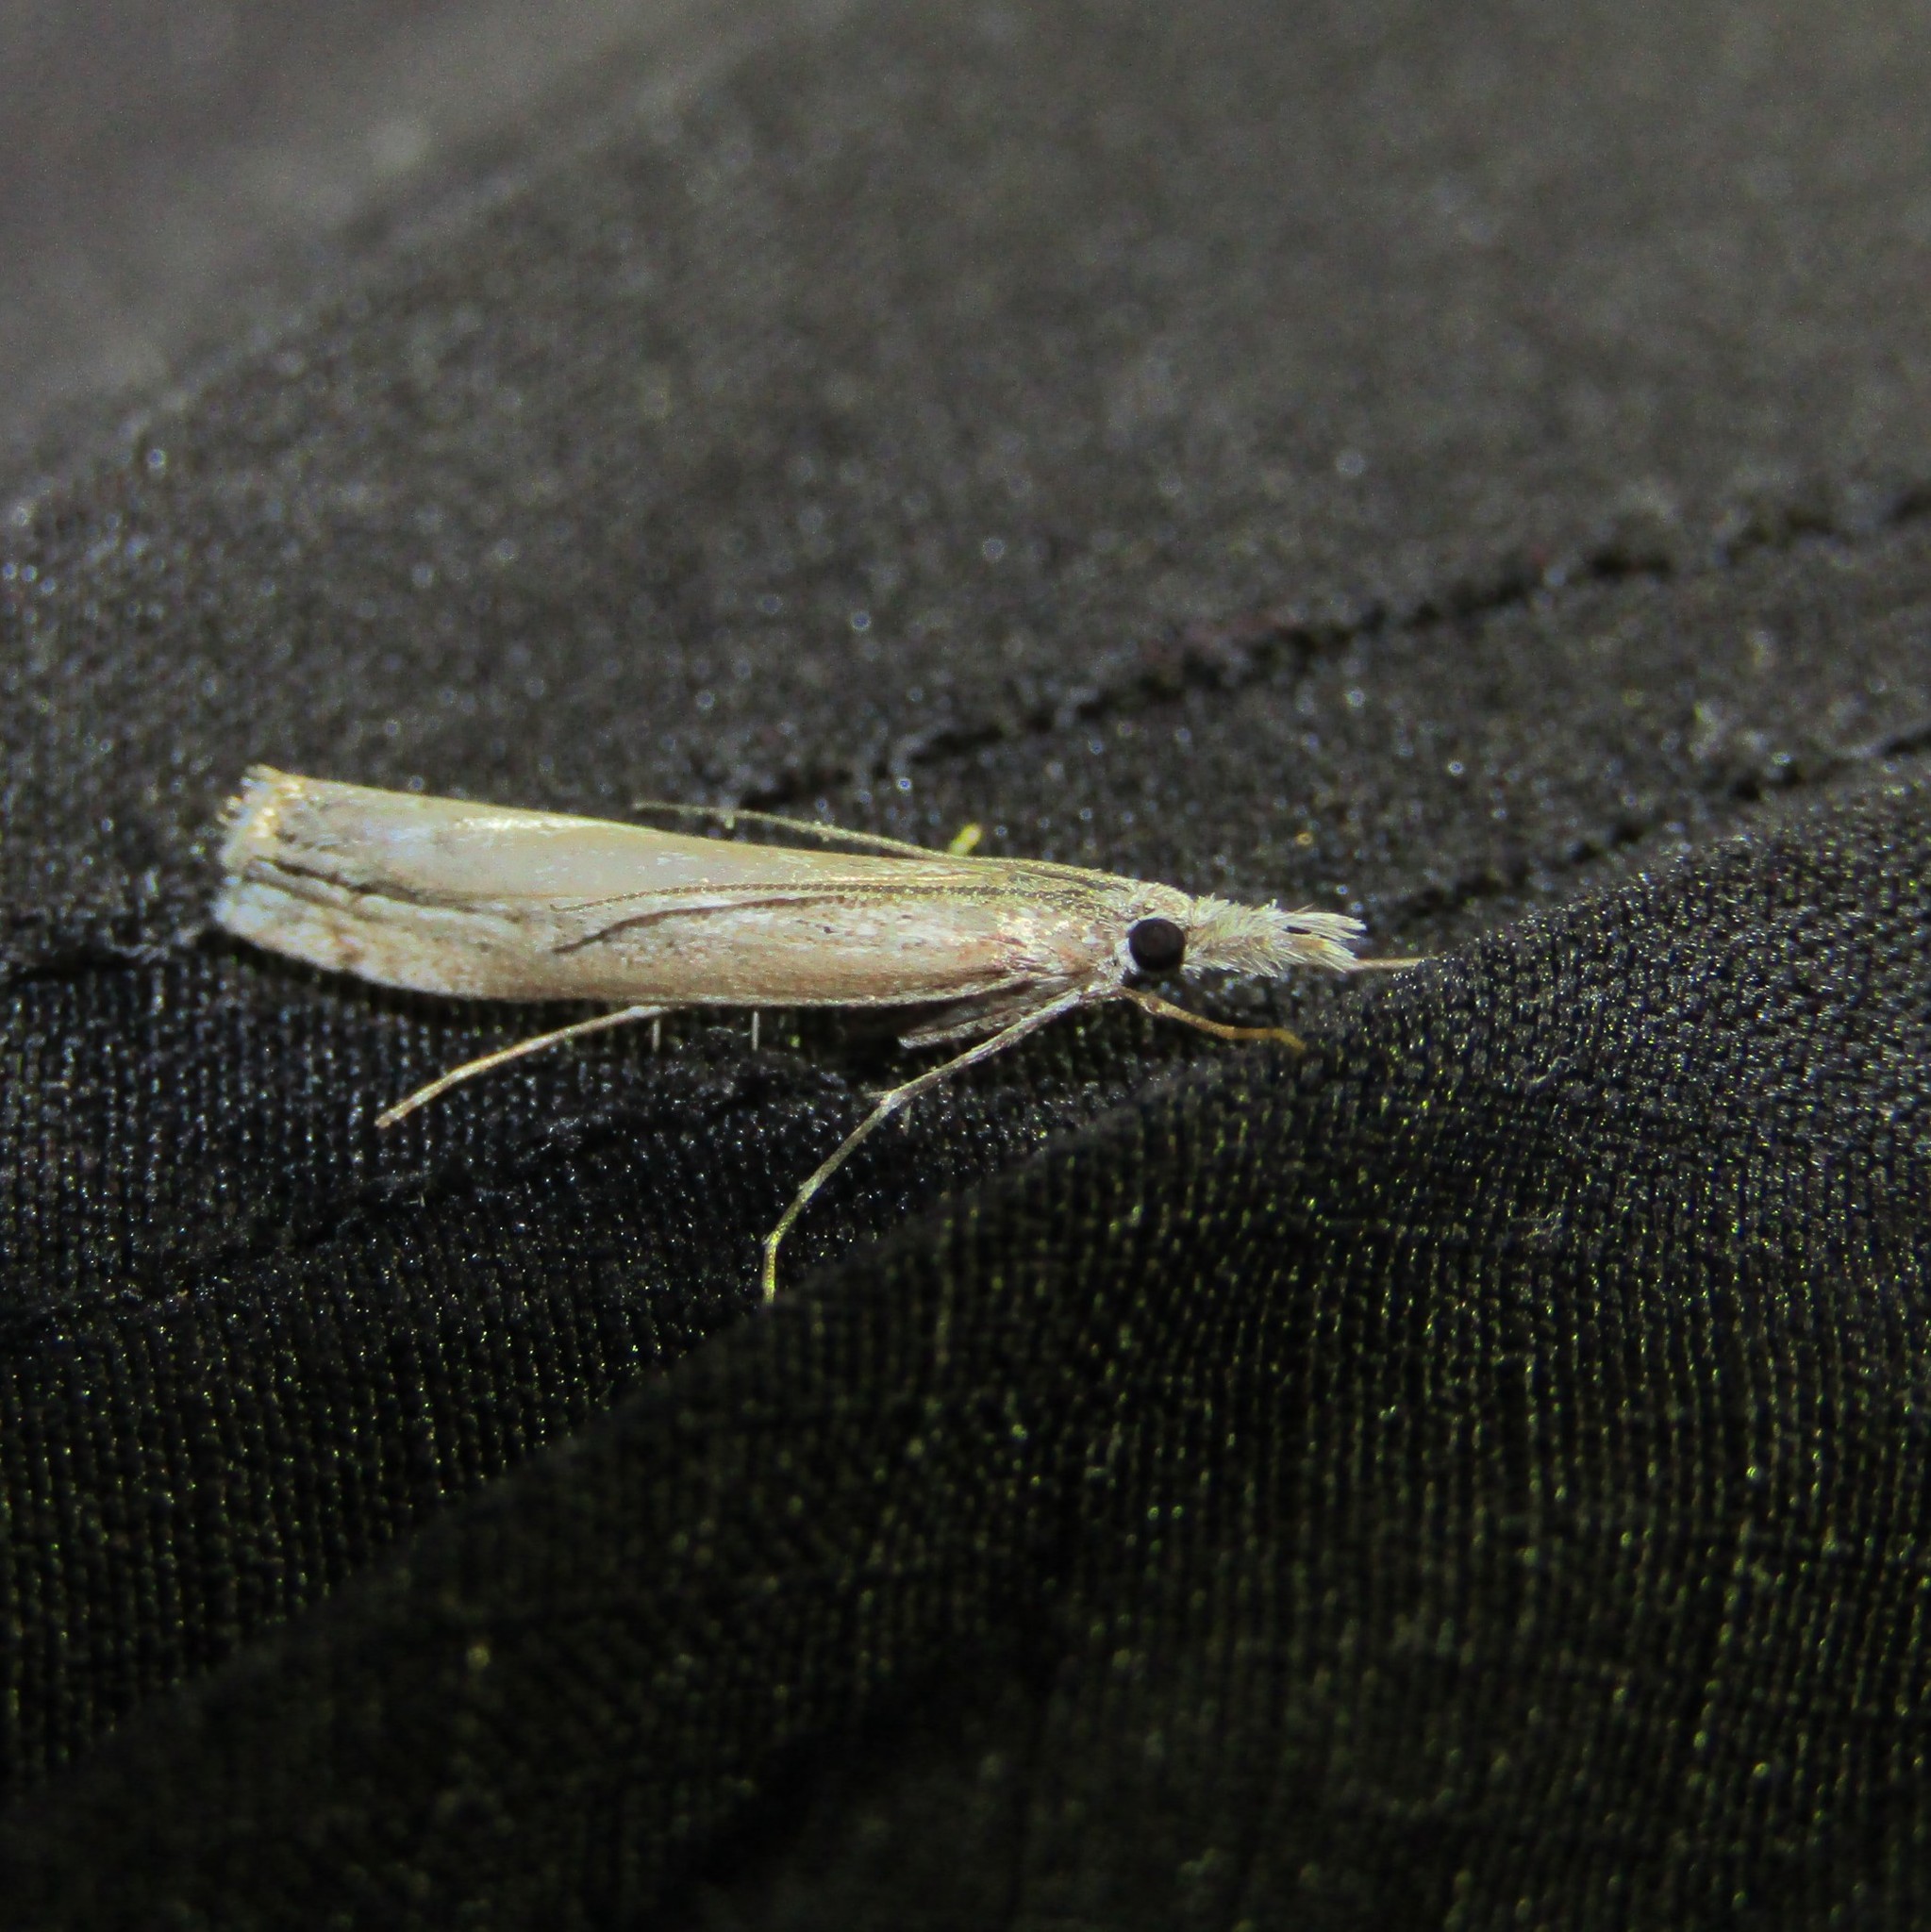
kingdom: Animalia
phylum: Arthropoda
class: Insecta
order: Lepidoptera
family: Crambidae
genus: Culladia
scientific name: Culladia cuneiferellus
